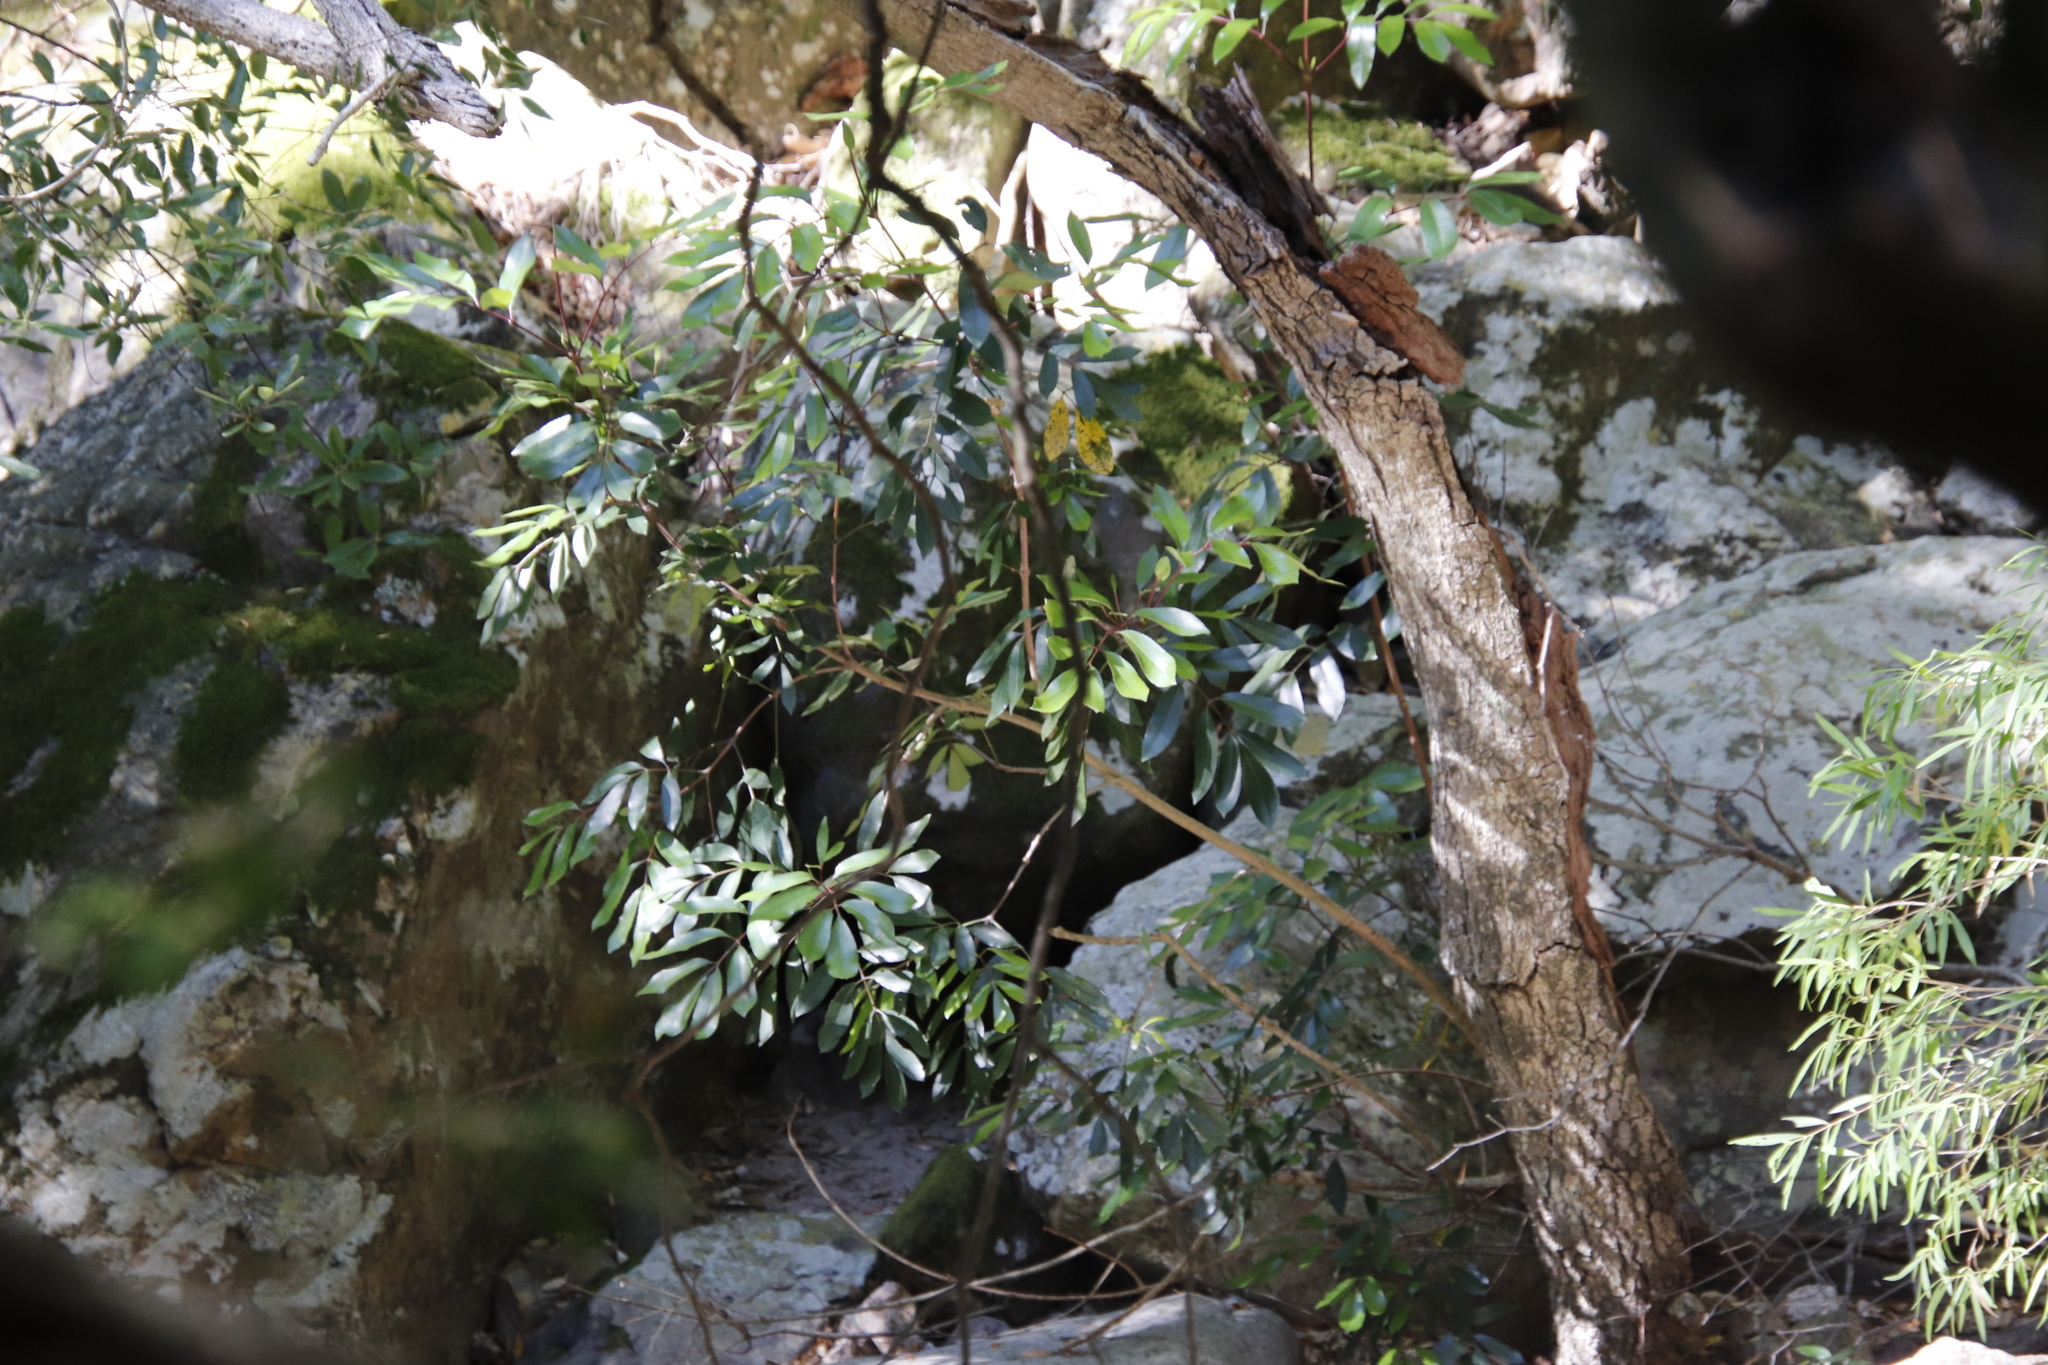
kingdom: Plantae
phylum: Tracheophyta
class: Magnoliopsida
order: Oxalidales
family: Cunoniaceae
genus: Cunonia
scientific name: Cunonia capensis
